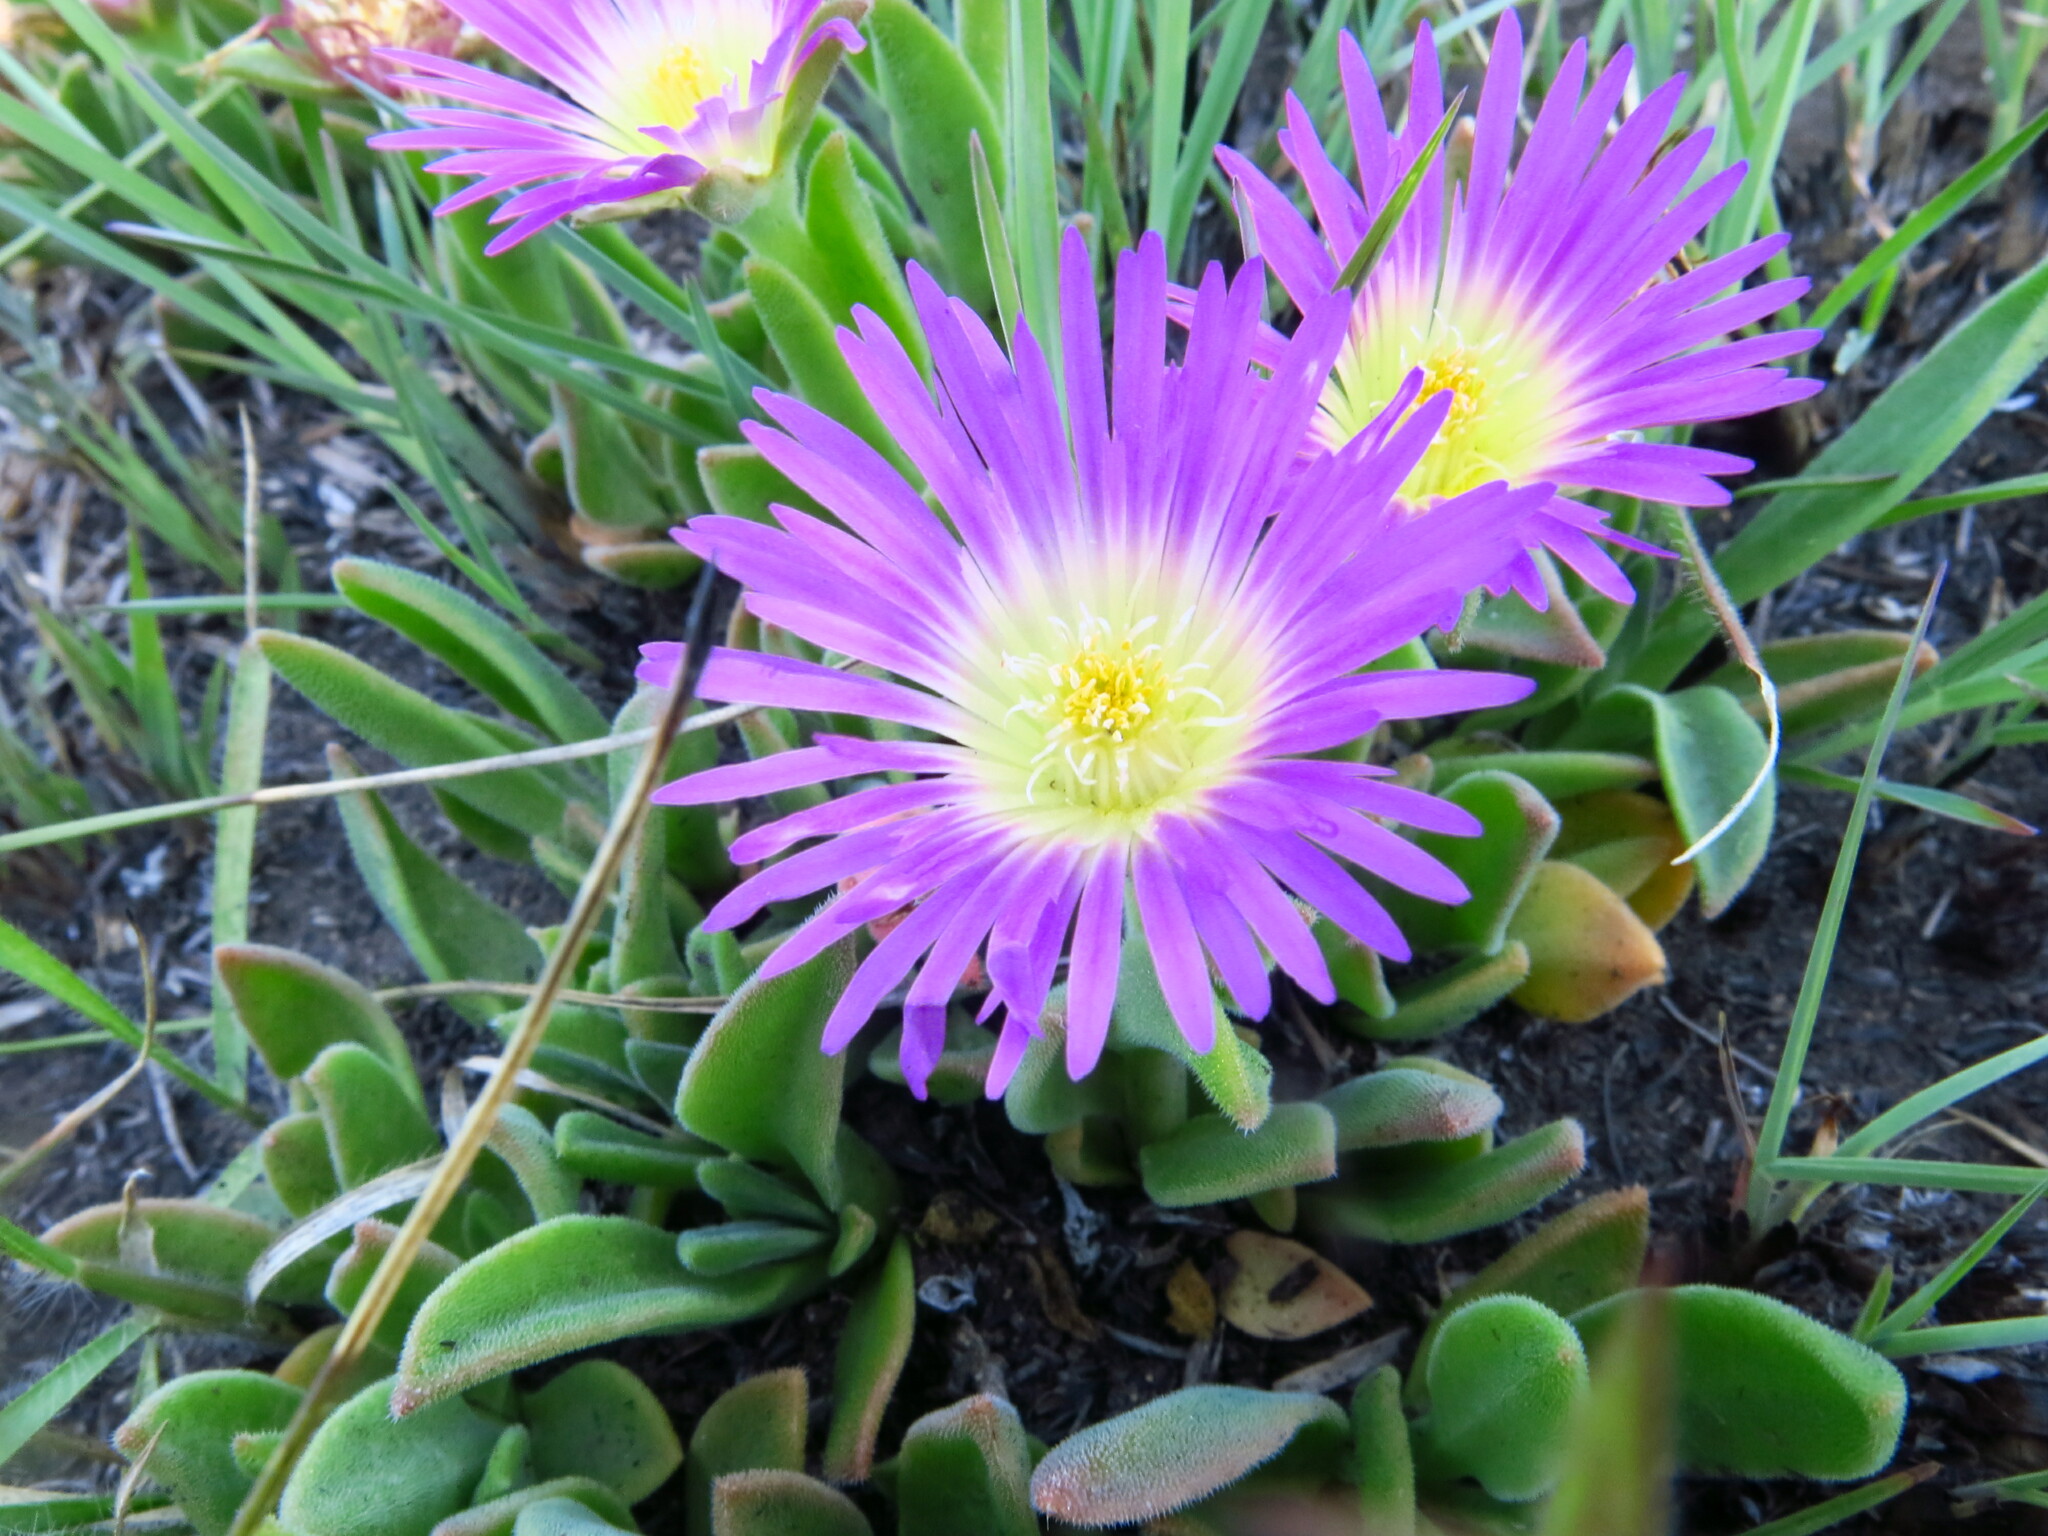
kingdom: Plantae
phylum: Tracheophyta
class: Magnoliopsida
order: Caryophyllales
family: Aizoaceae
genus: Delosperma
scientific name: Delosperma sutherlandii
